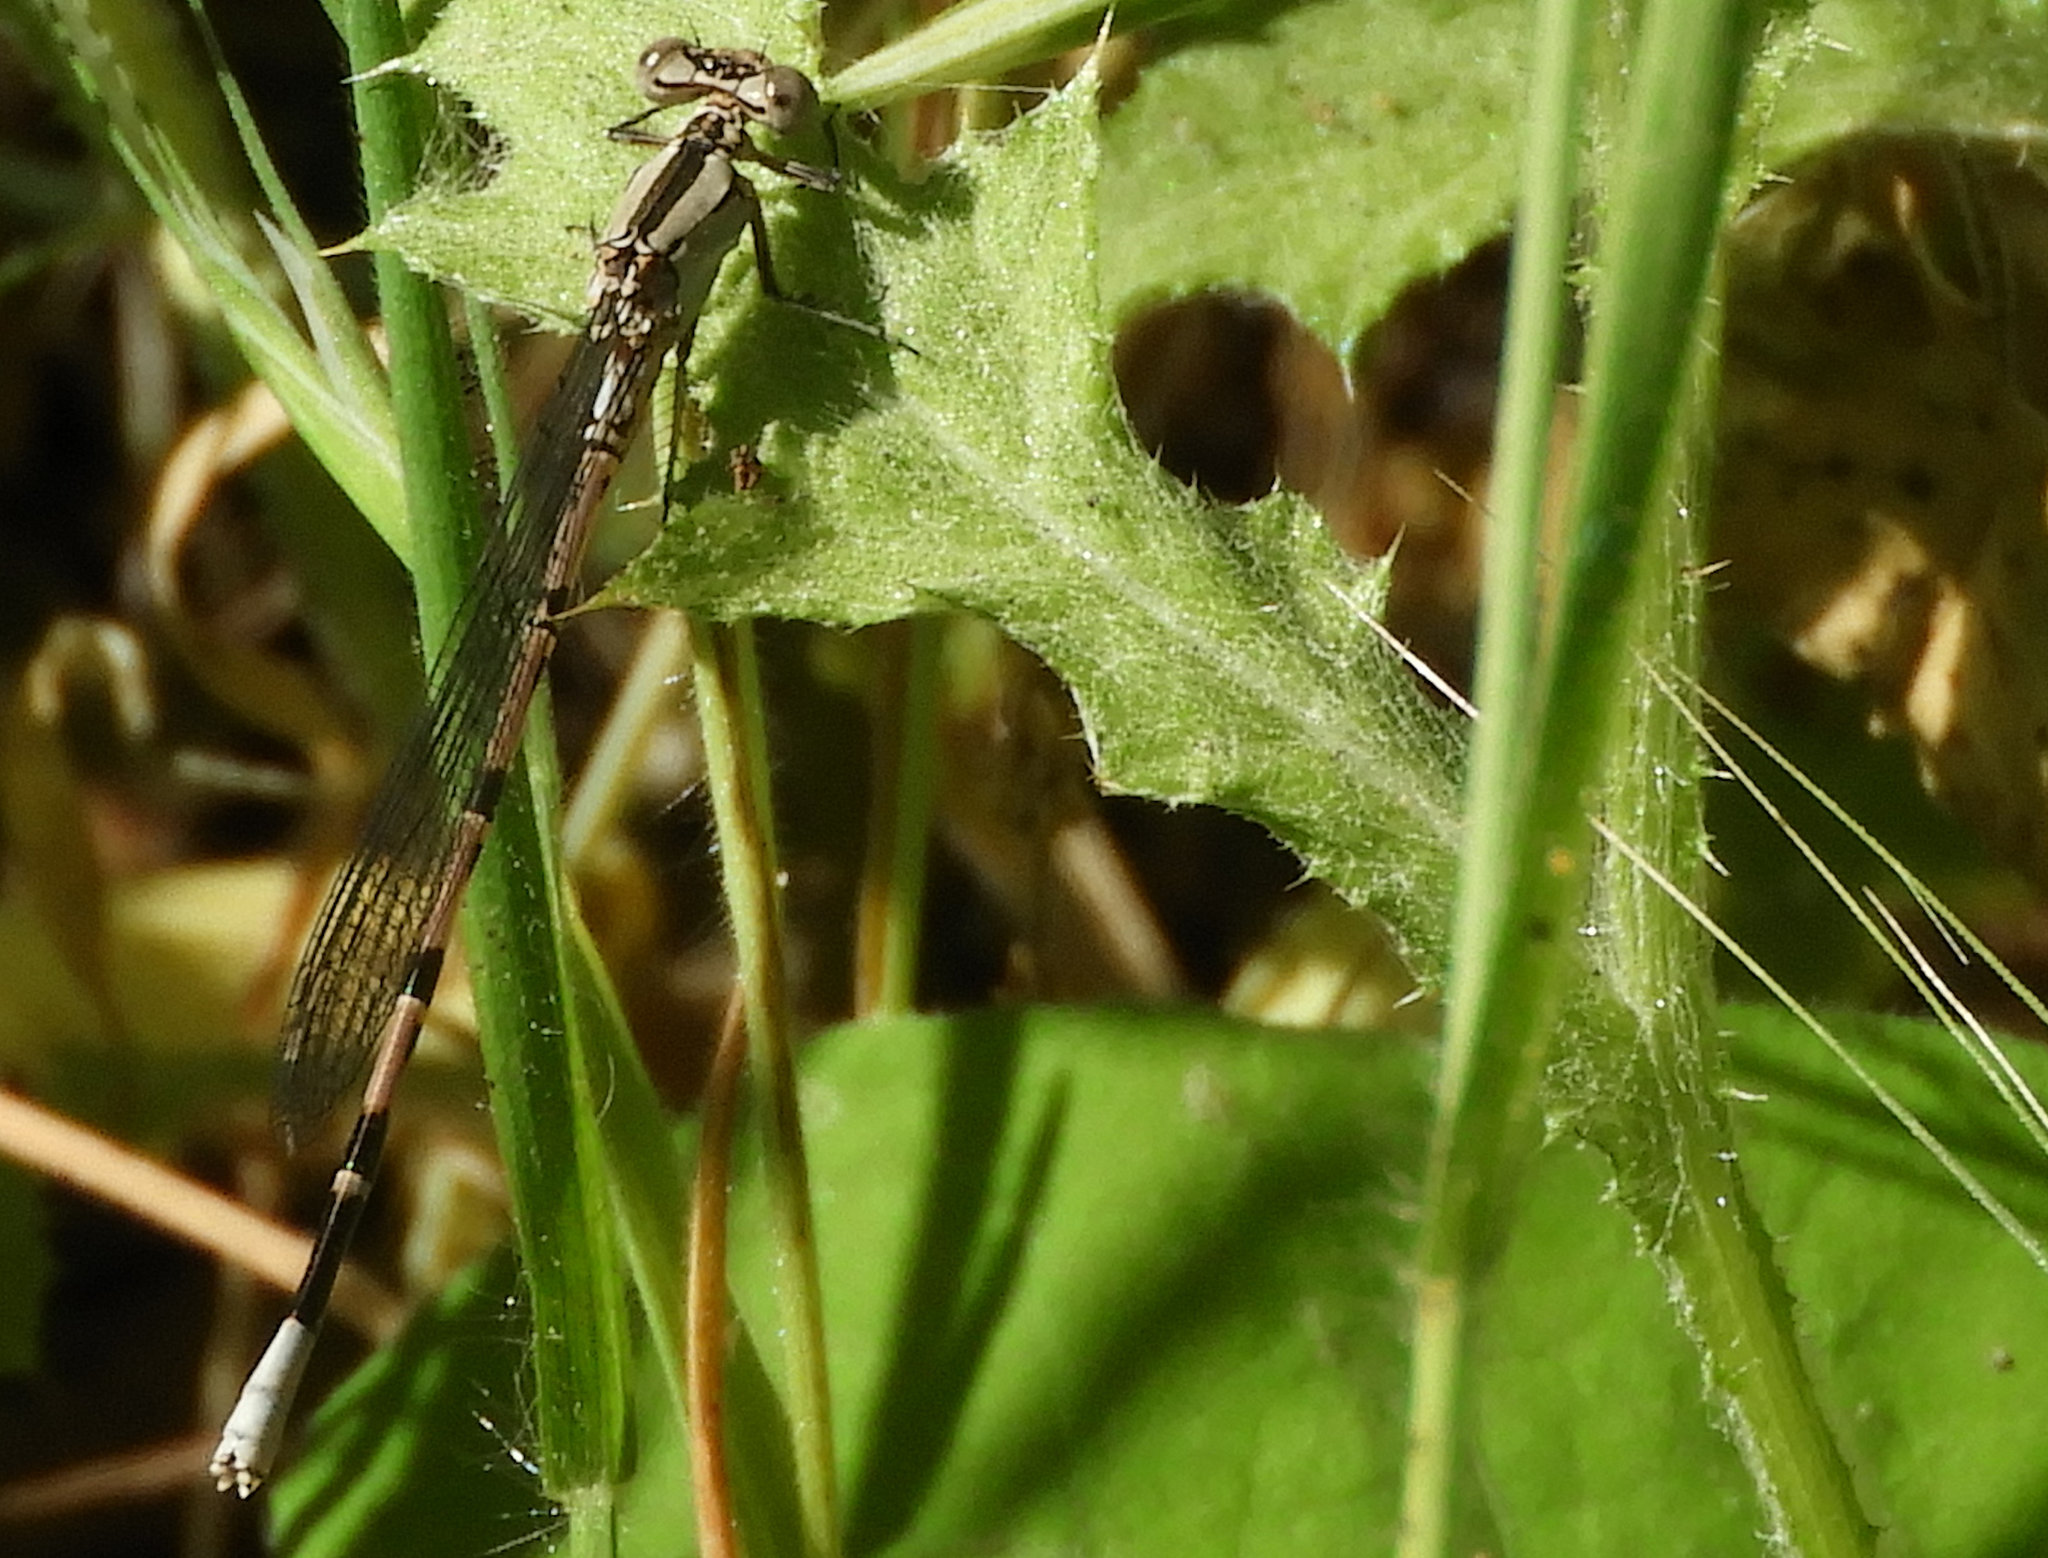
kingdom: Animalia
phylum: Arthropoda
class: Insecta
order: Odonata
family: Coenagrionidae
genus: Argia
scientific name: Argia vivida
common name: Vivid dancer
